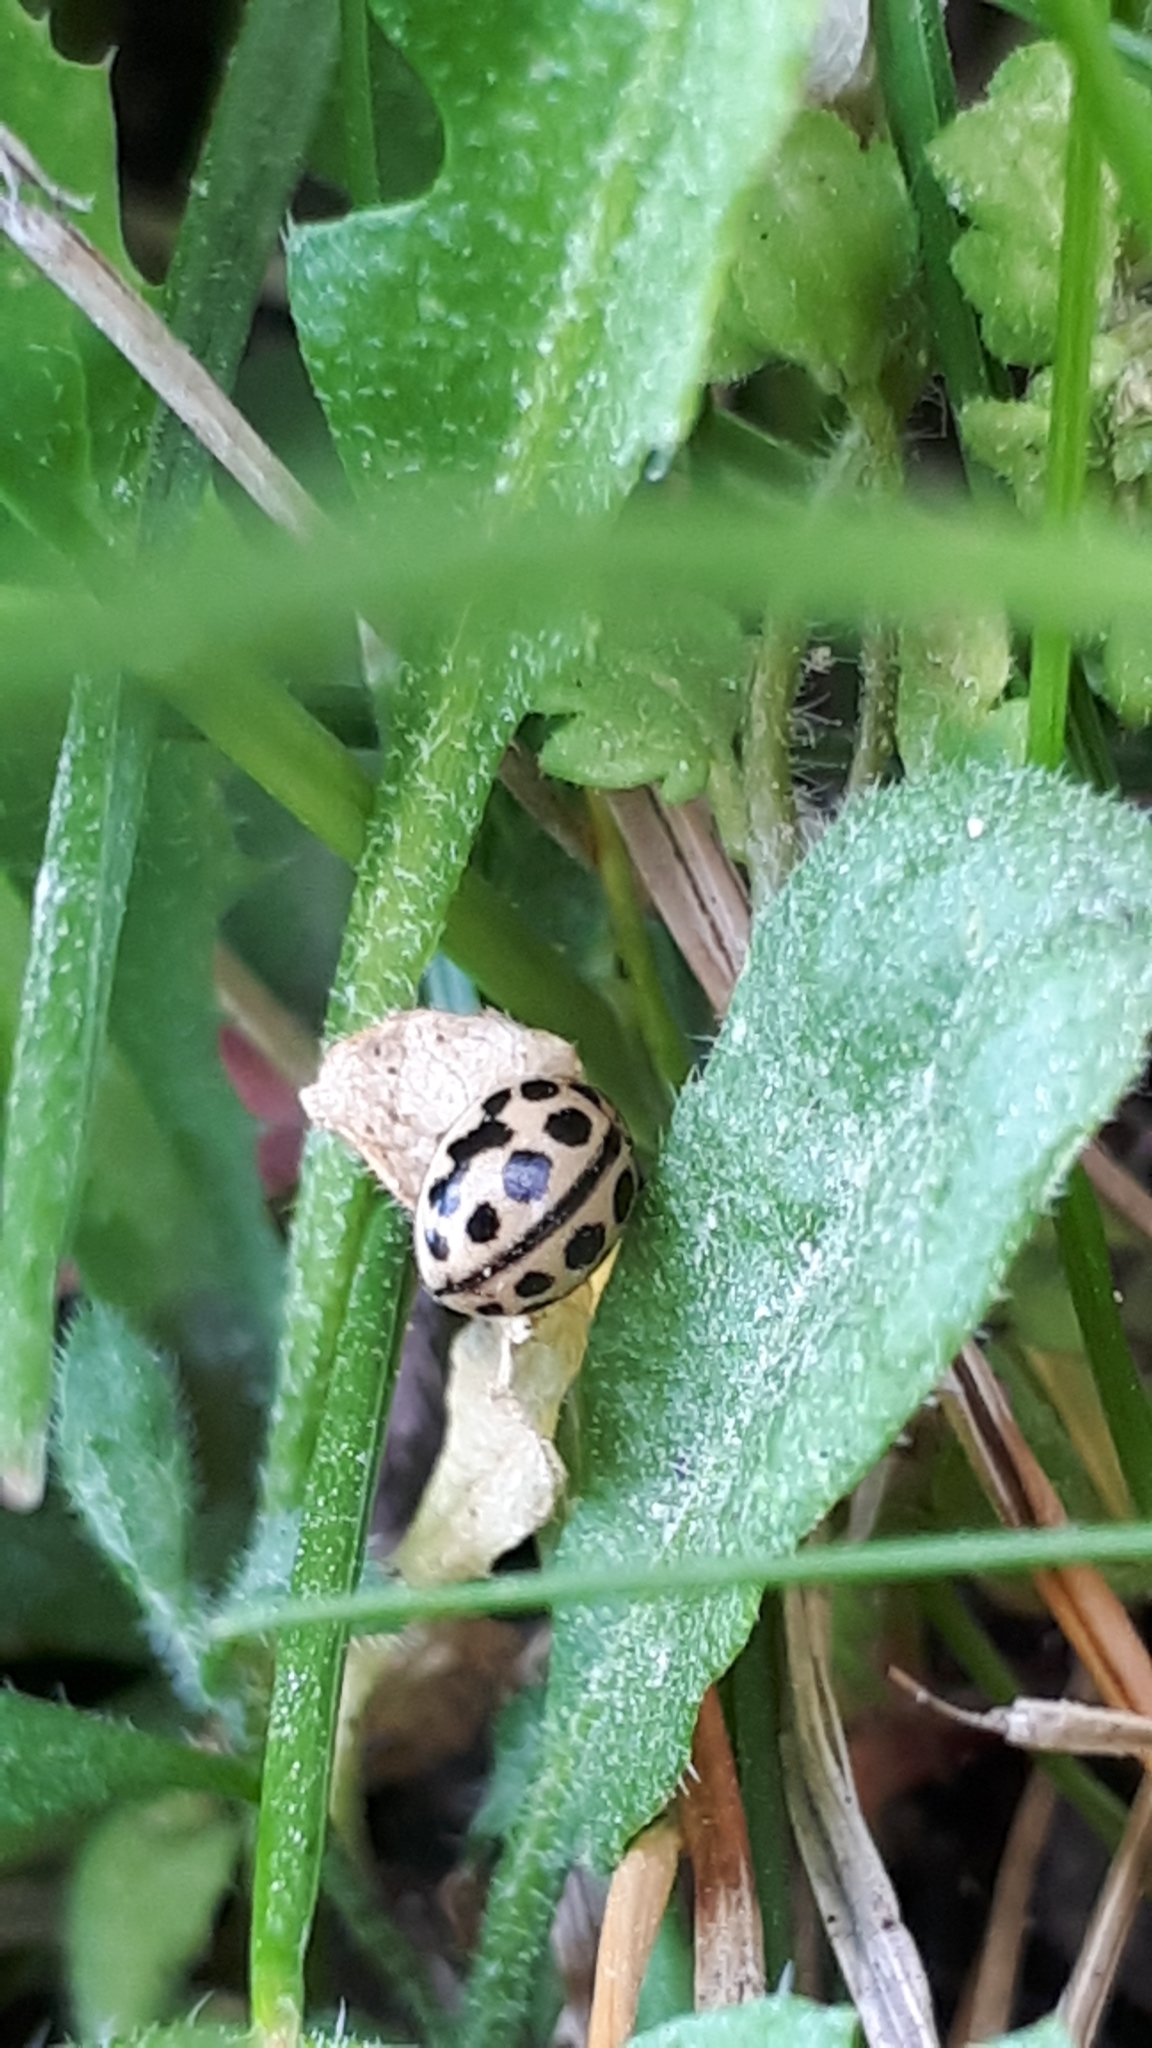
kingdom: Animalia
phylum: Arthropoda
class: Insecta
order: Coleoptera
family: Coccinellidae
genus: Tytthaspis
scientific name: Tytthaspis sedecimpunctata
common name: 16-spot ladybird
